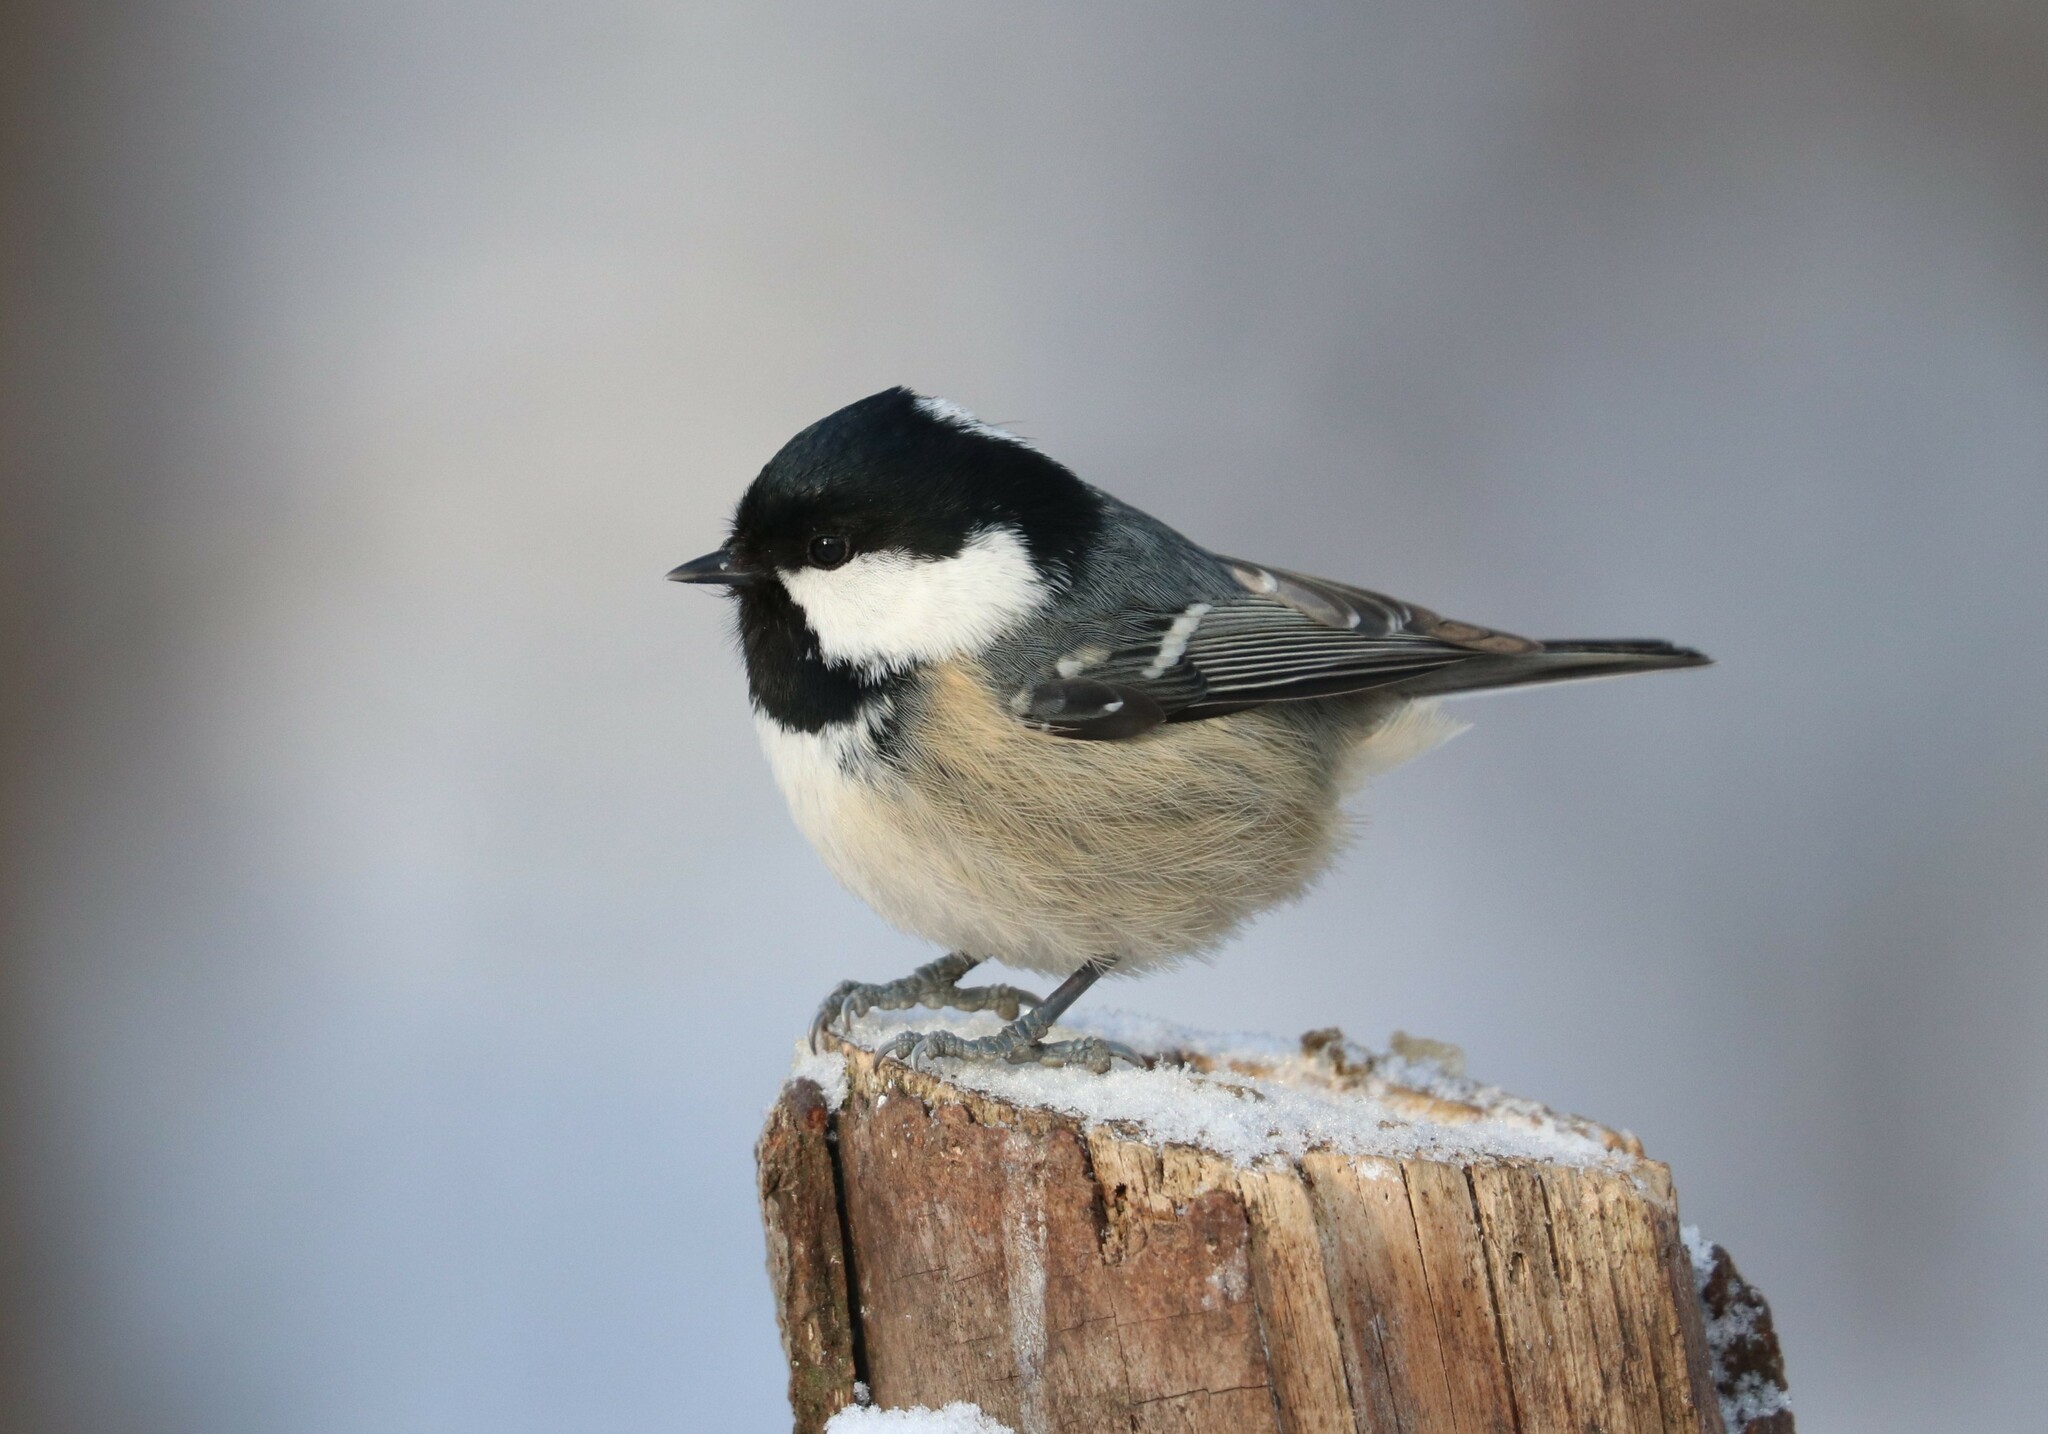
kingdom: Animalia
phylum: Chordata
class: Aves
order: Passeriformes
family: Paridae
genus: Periparus
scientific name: Periparus ater
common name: Coal tit
